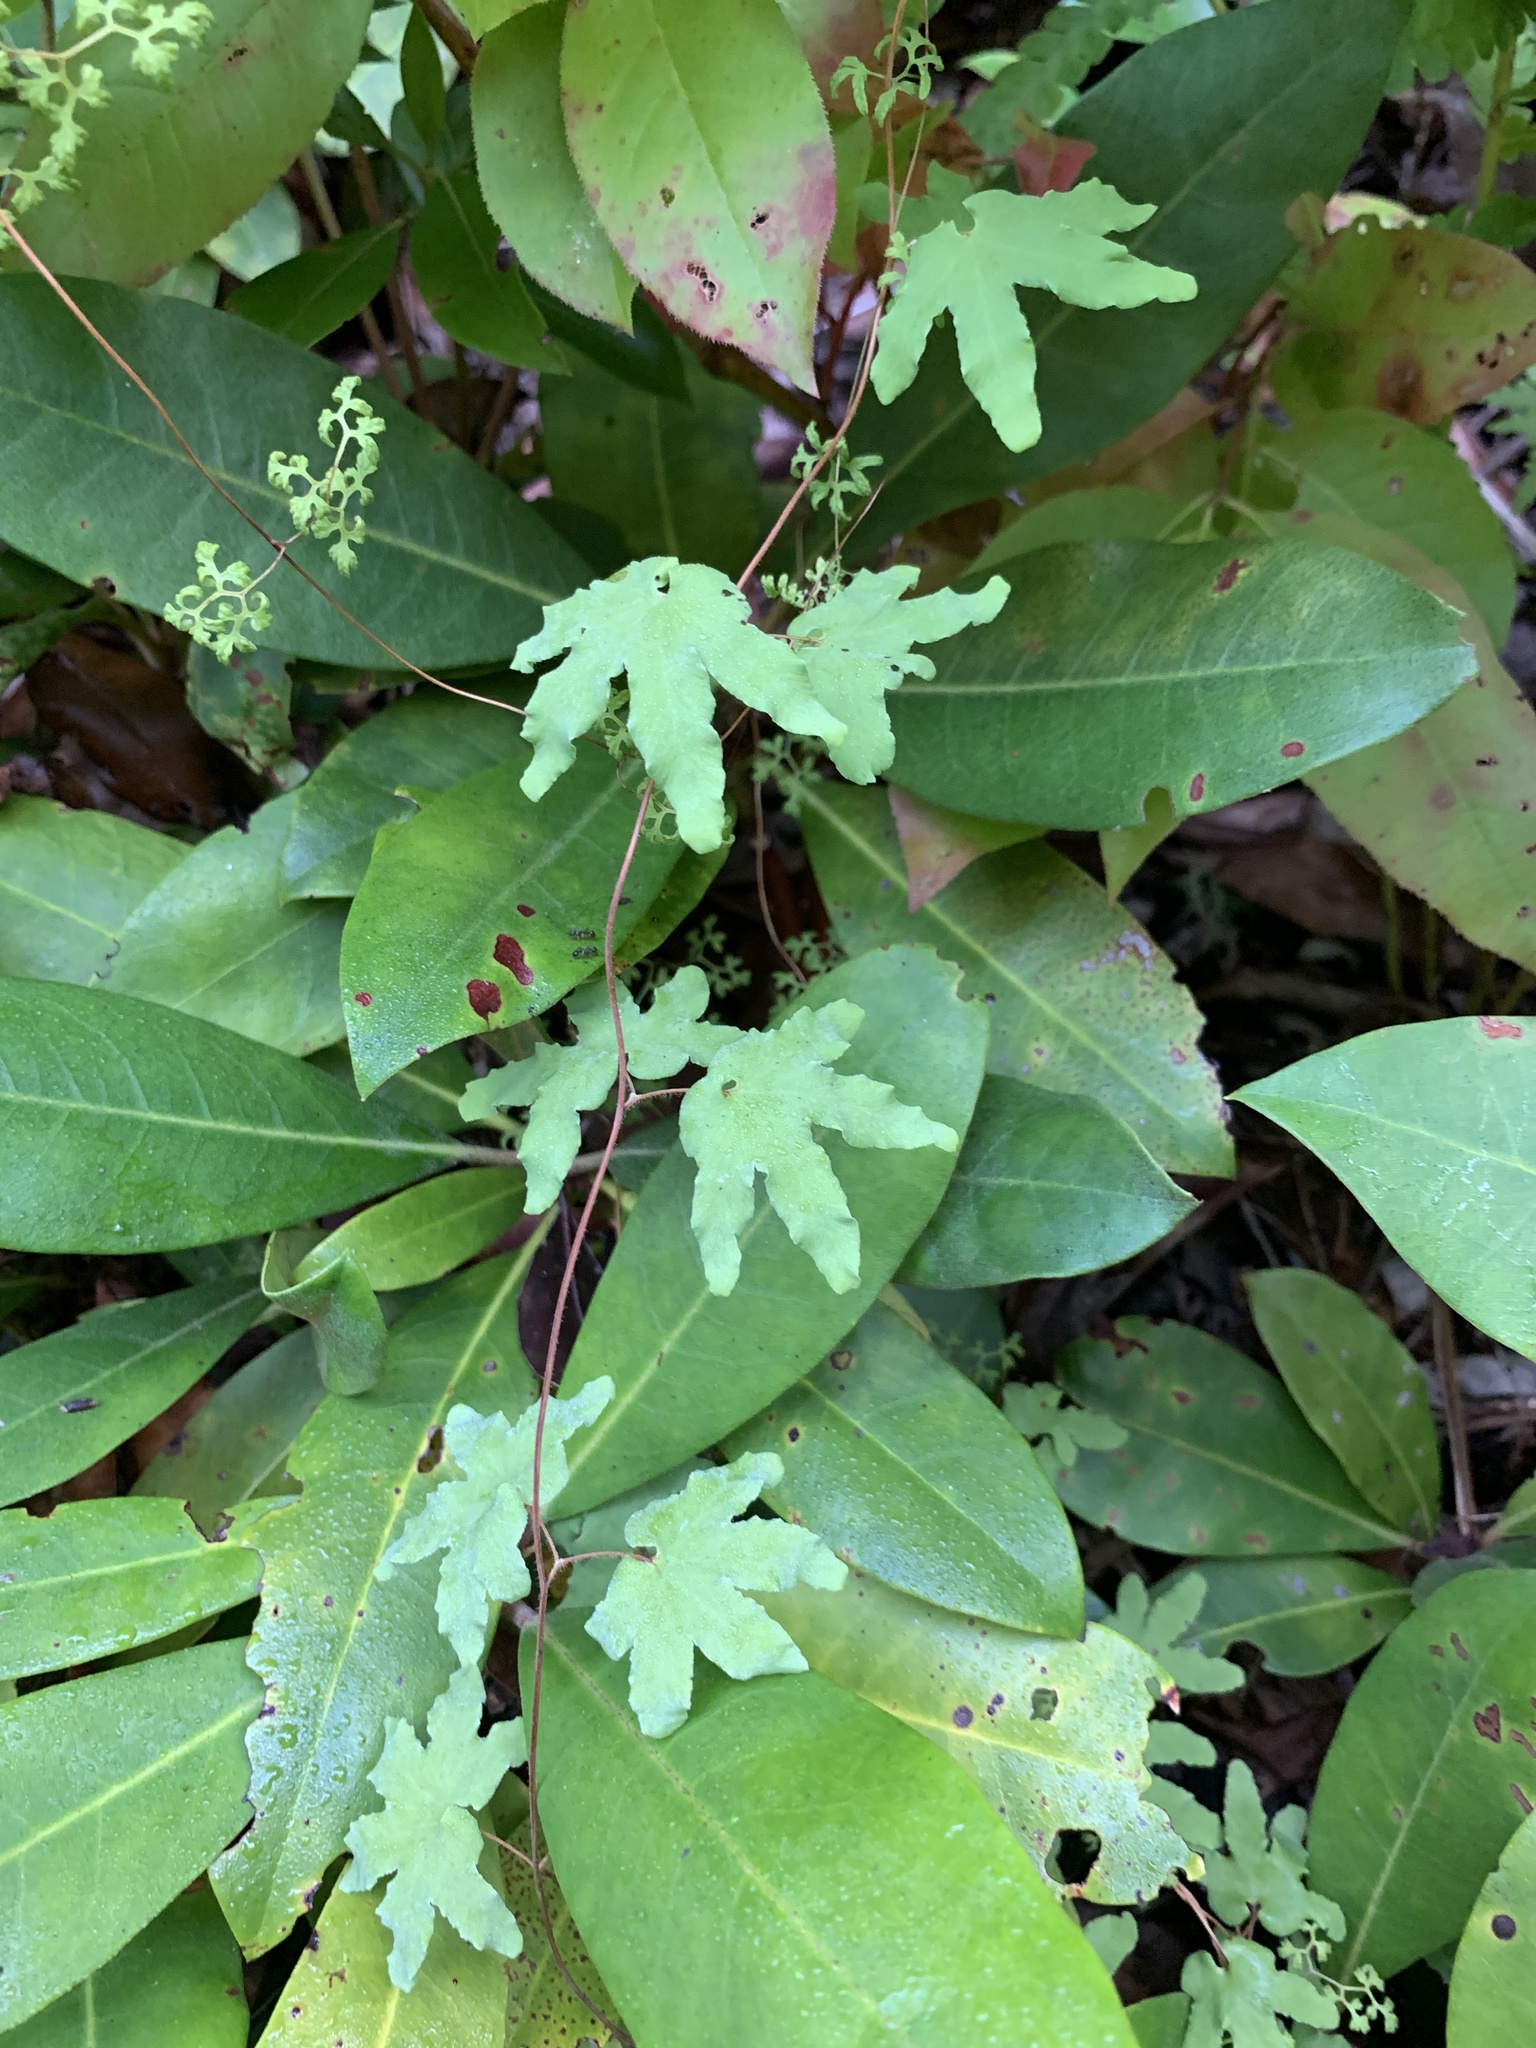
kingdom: Plantae
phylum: Tracheophyta
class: Polypodiopsida
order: Schizaeales
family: Lygodiaceae
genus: Lygodium
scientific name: Lygodium palmatum
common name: American climbing fern
